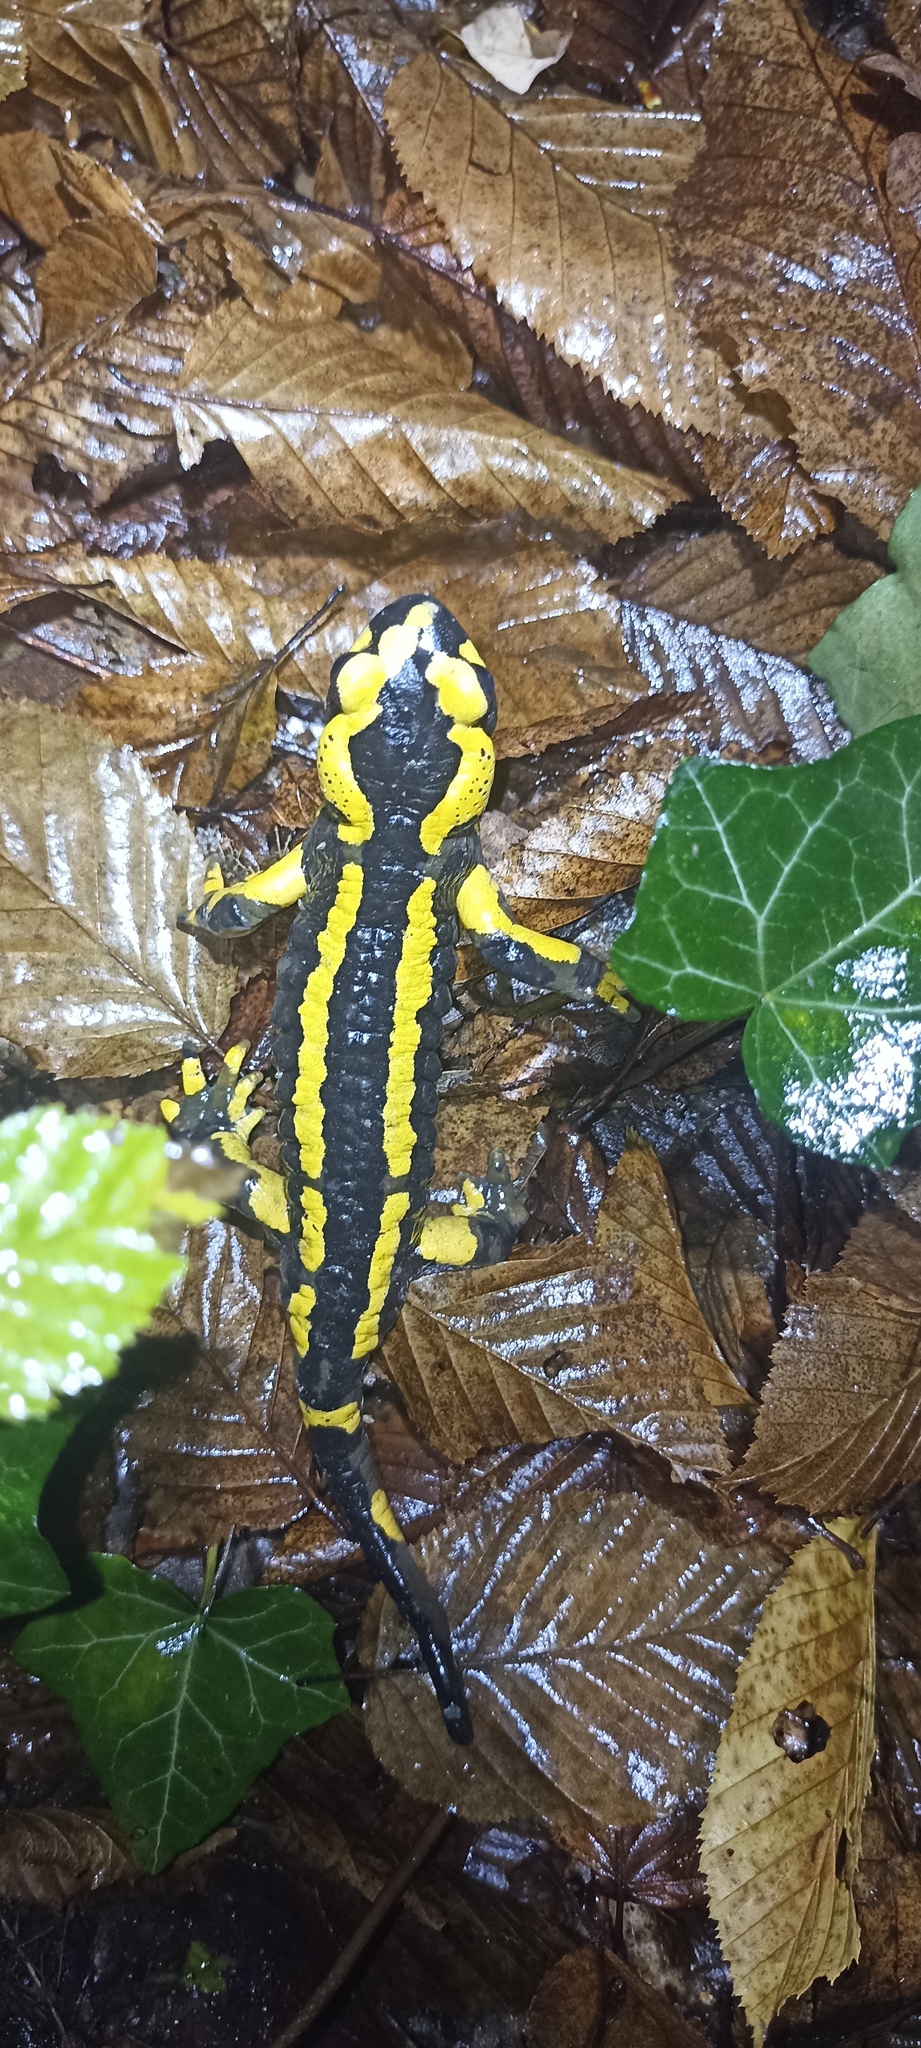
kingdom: Animalia
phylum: Chordata
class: Amphibia
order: Caudata
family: Salamandridae
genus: Salamandra
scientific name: Salamandra salamandra
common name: Fire salamander
